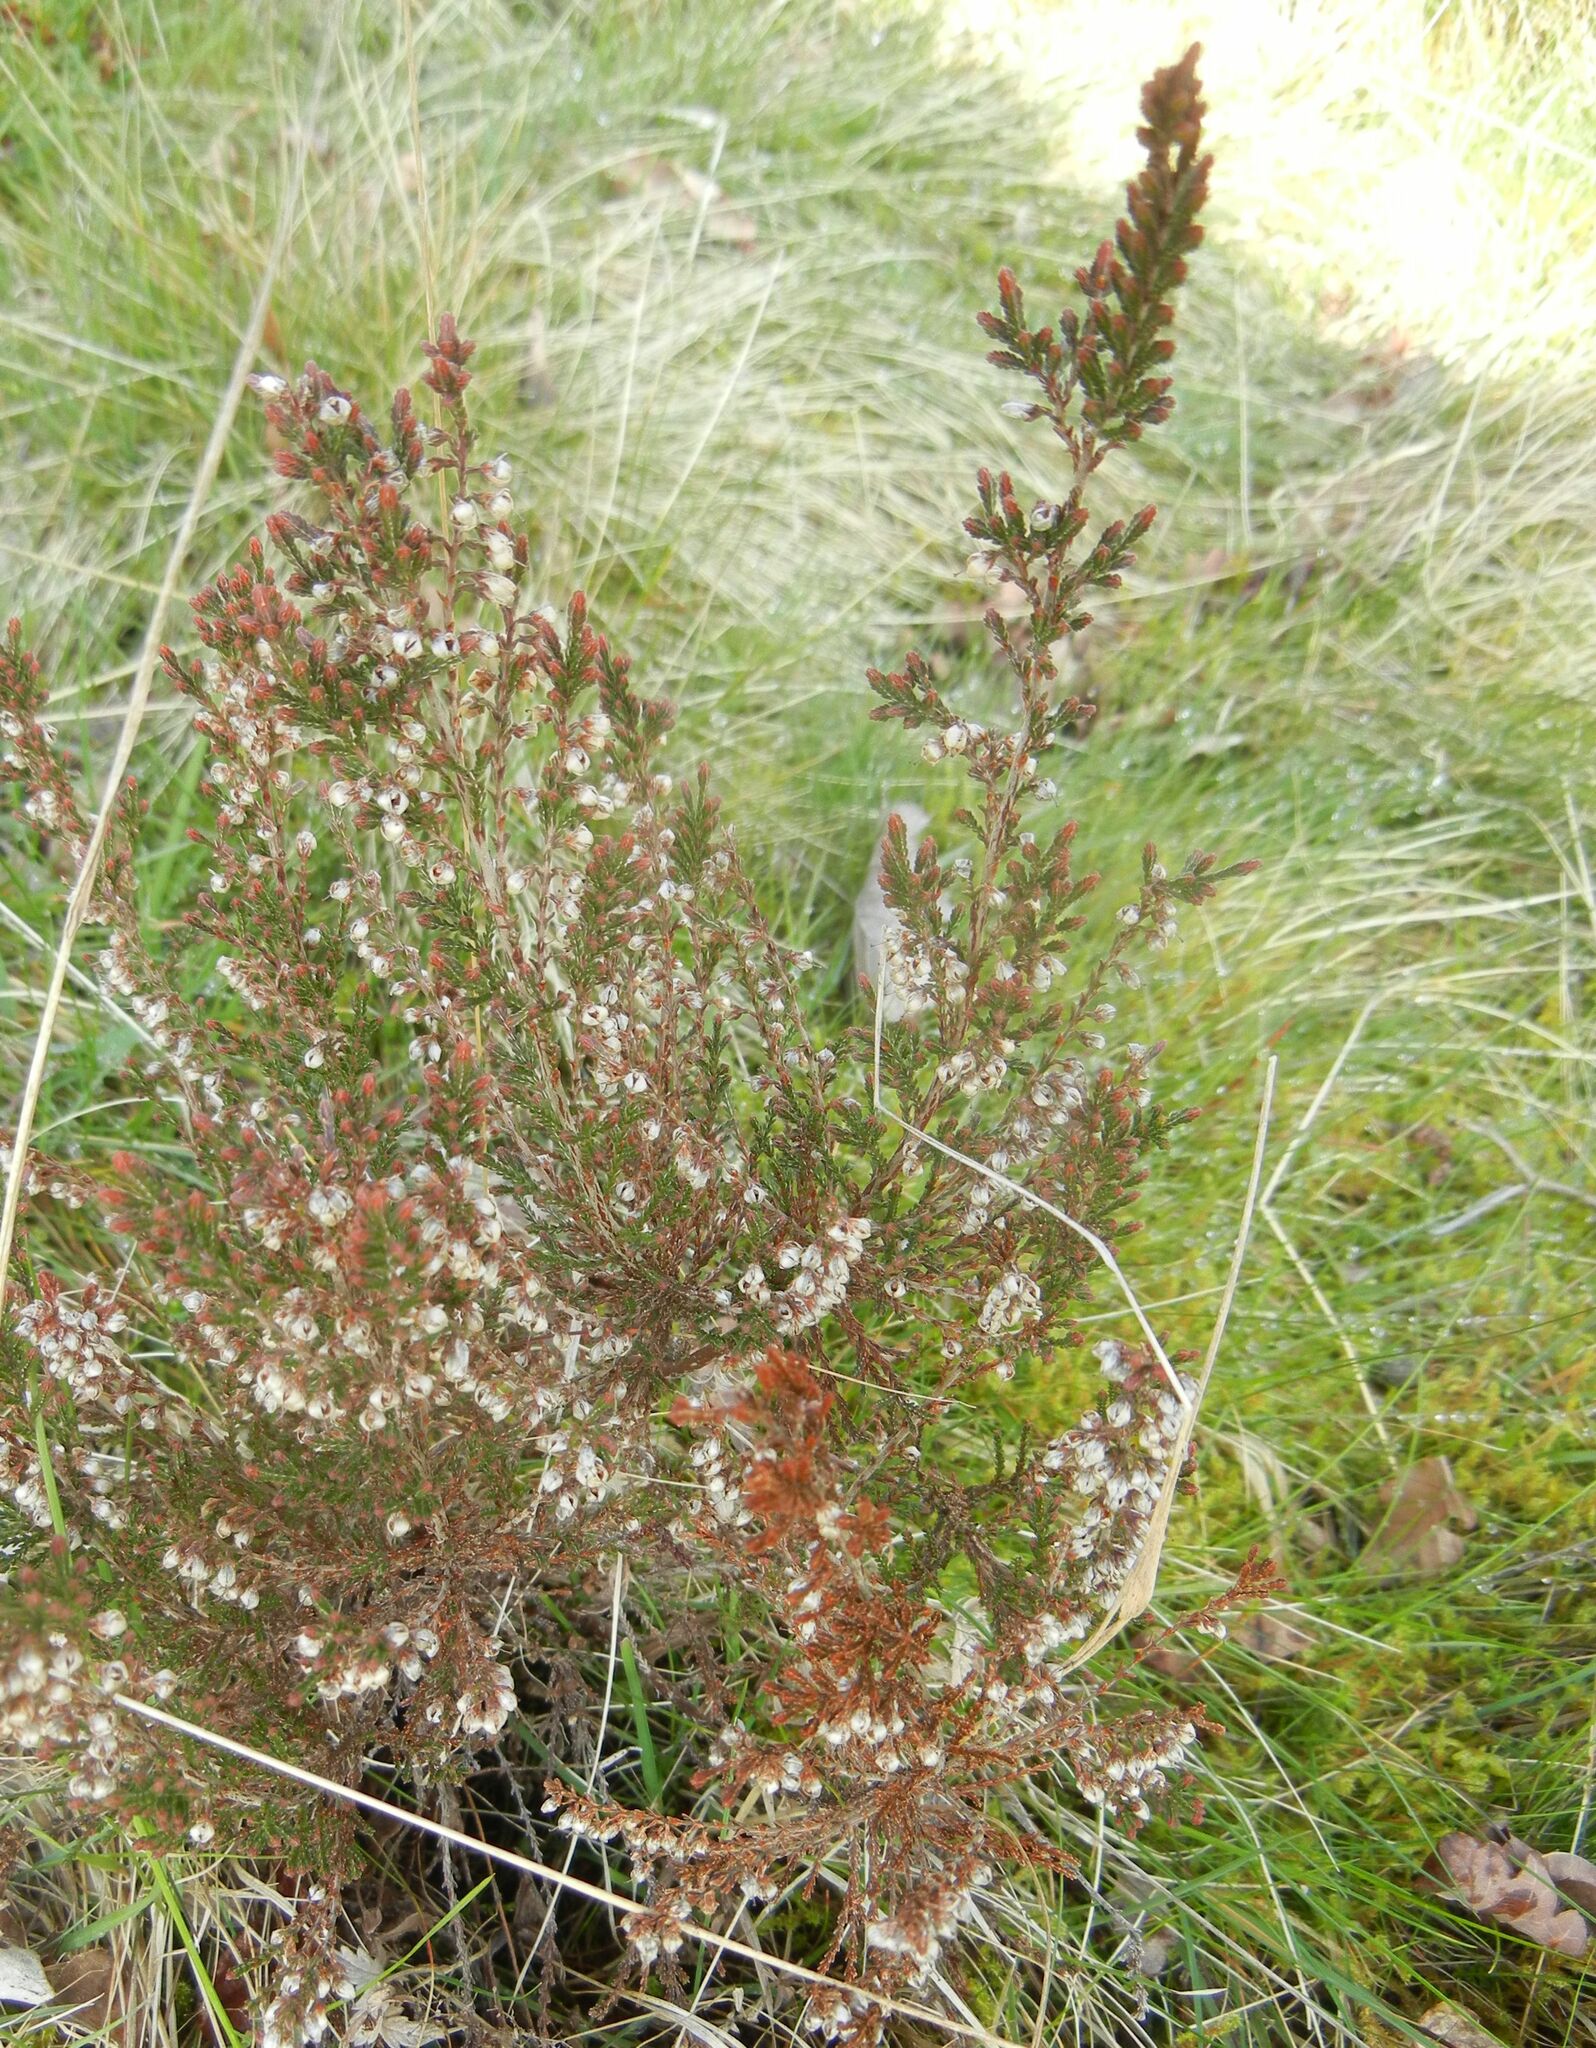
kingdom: Plantae
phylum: Tracheophyta
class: Magnoliopsida
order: Ericales
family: Ericaceae
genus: Calluna
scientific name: Calluna vulgaris
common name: Heather
